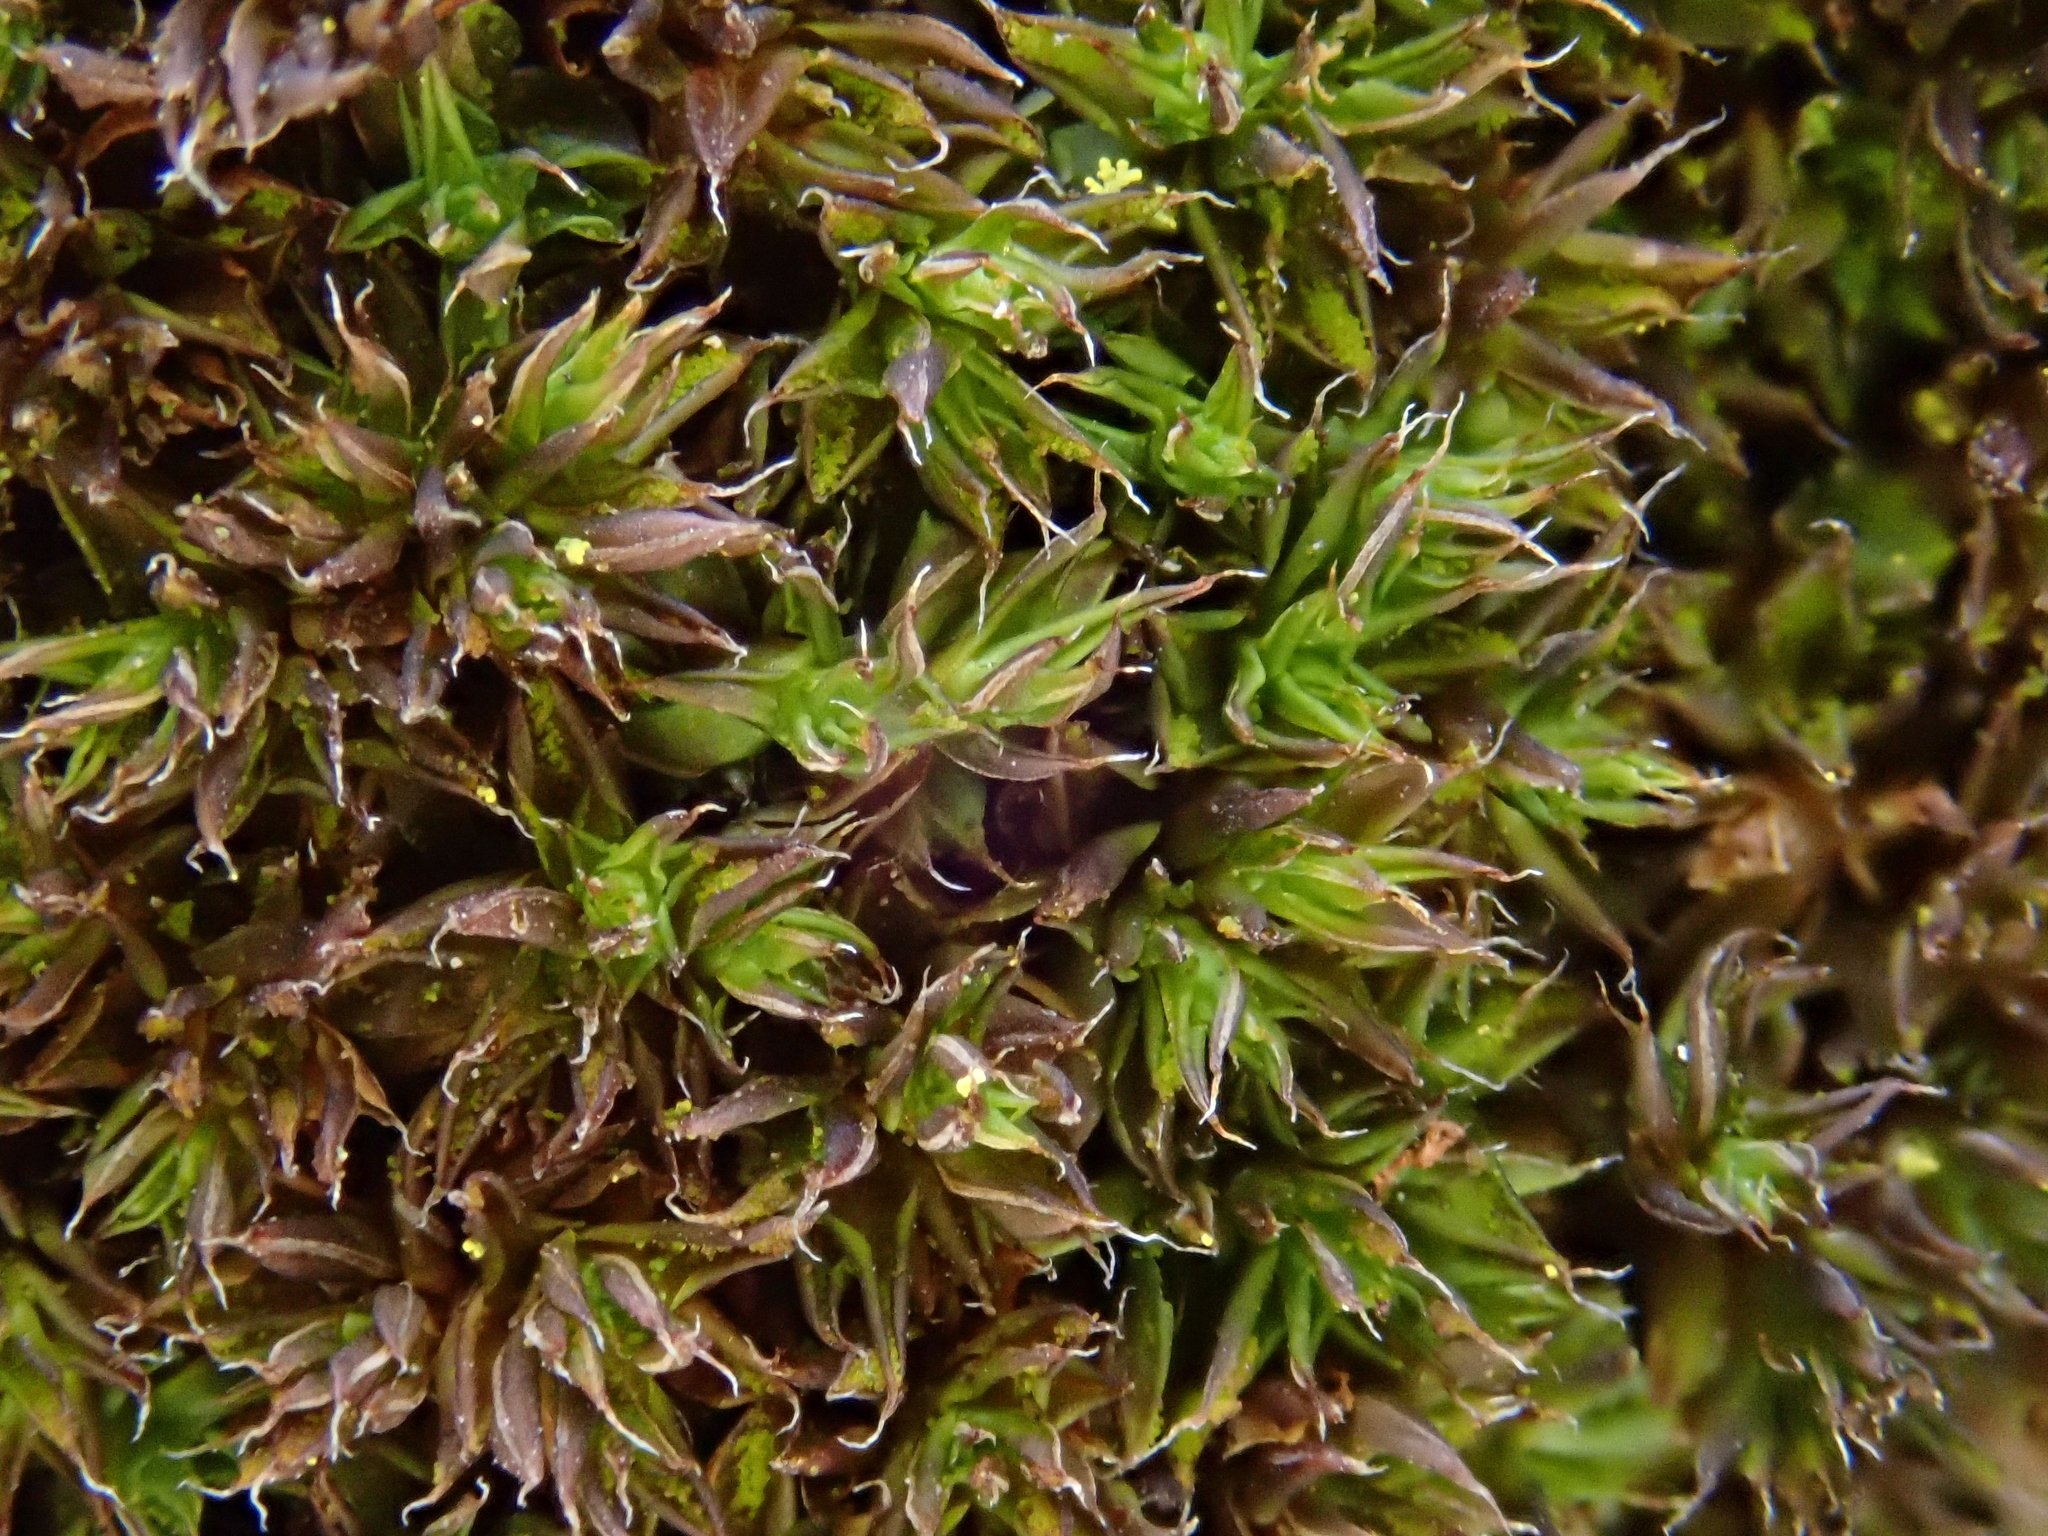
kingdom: Plantae
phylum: Bryophyta
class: Bryopsida
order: Pottiales
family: Pottiaceae
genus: Syntrichia
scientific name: Syntrichia papillosa
